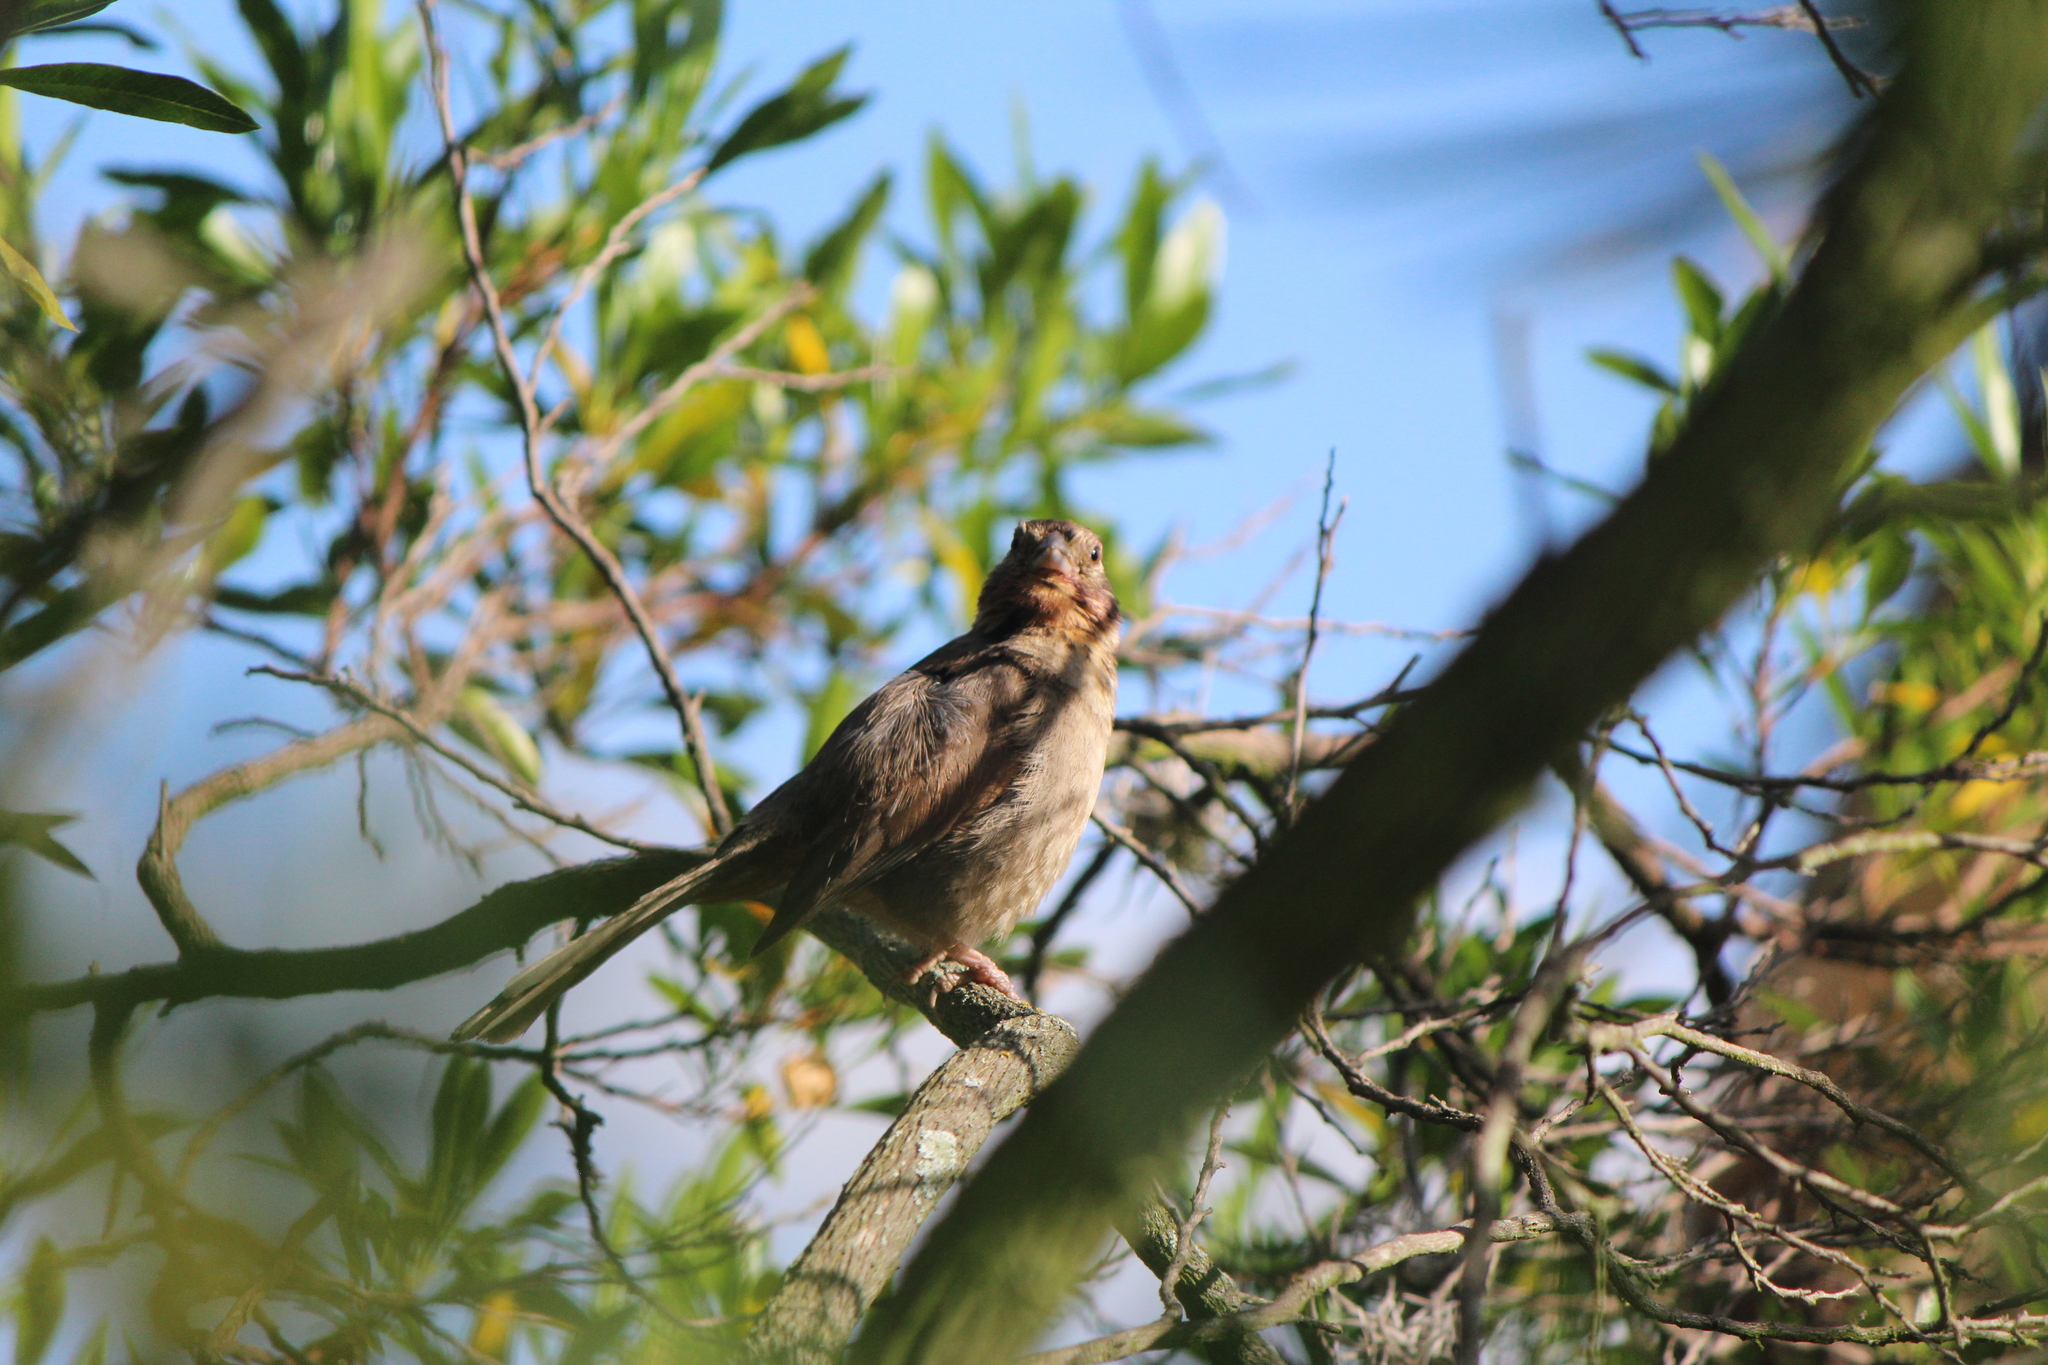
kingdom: Animalia
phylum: Chordata
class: Aves
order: Passeriformes
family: Passerellidae
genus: Melozone
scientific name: Melozone fusca
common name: Canyon towhee
